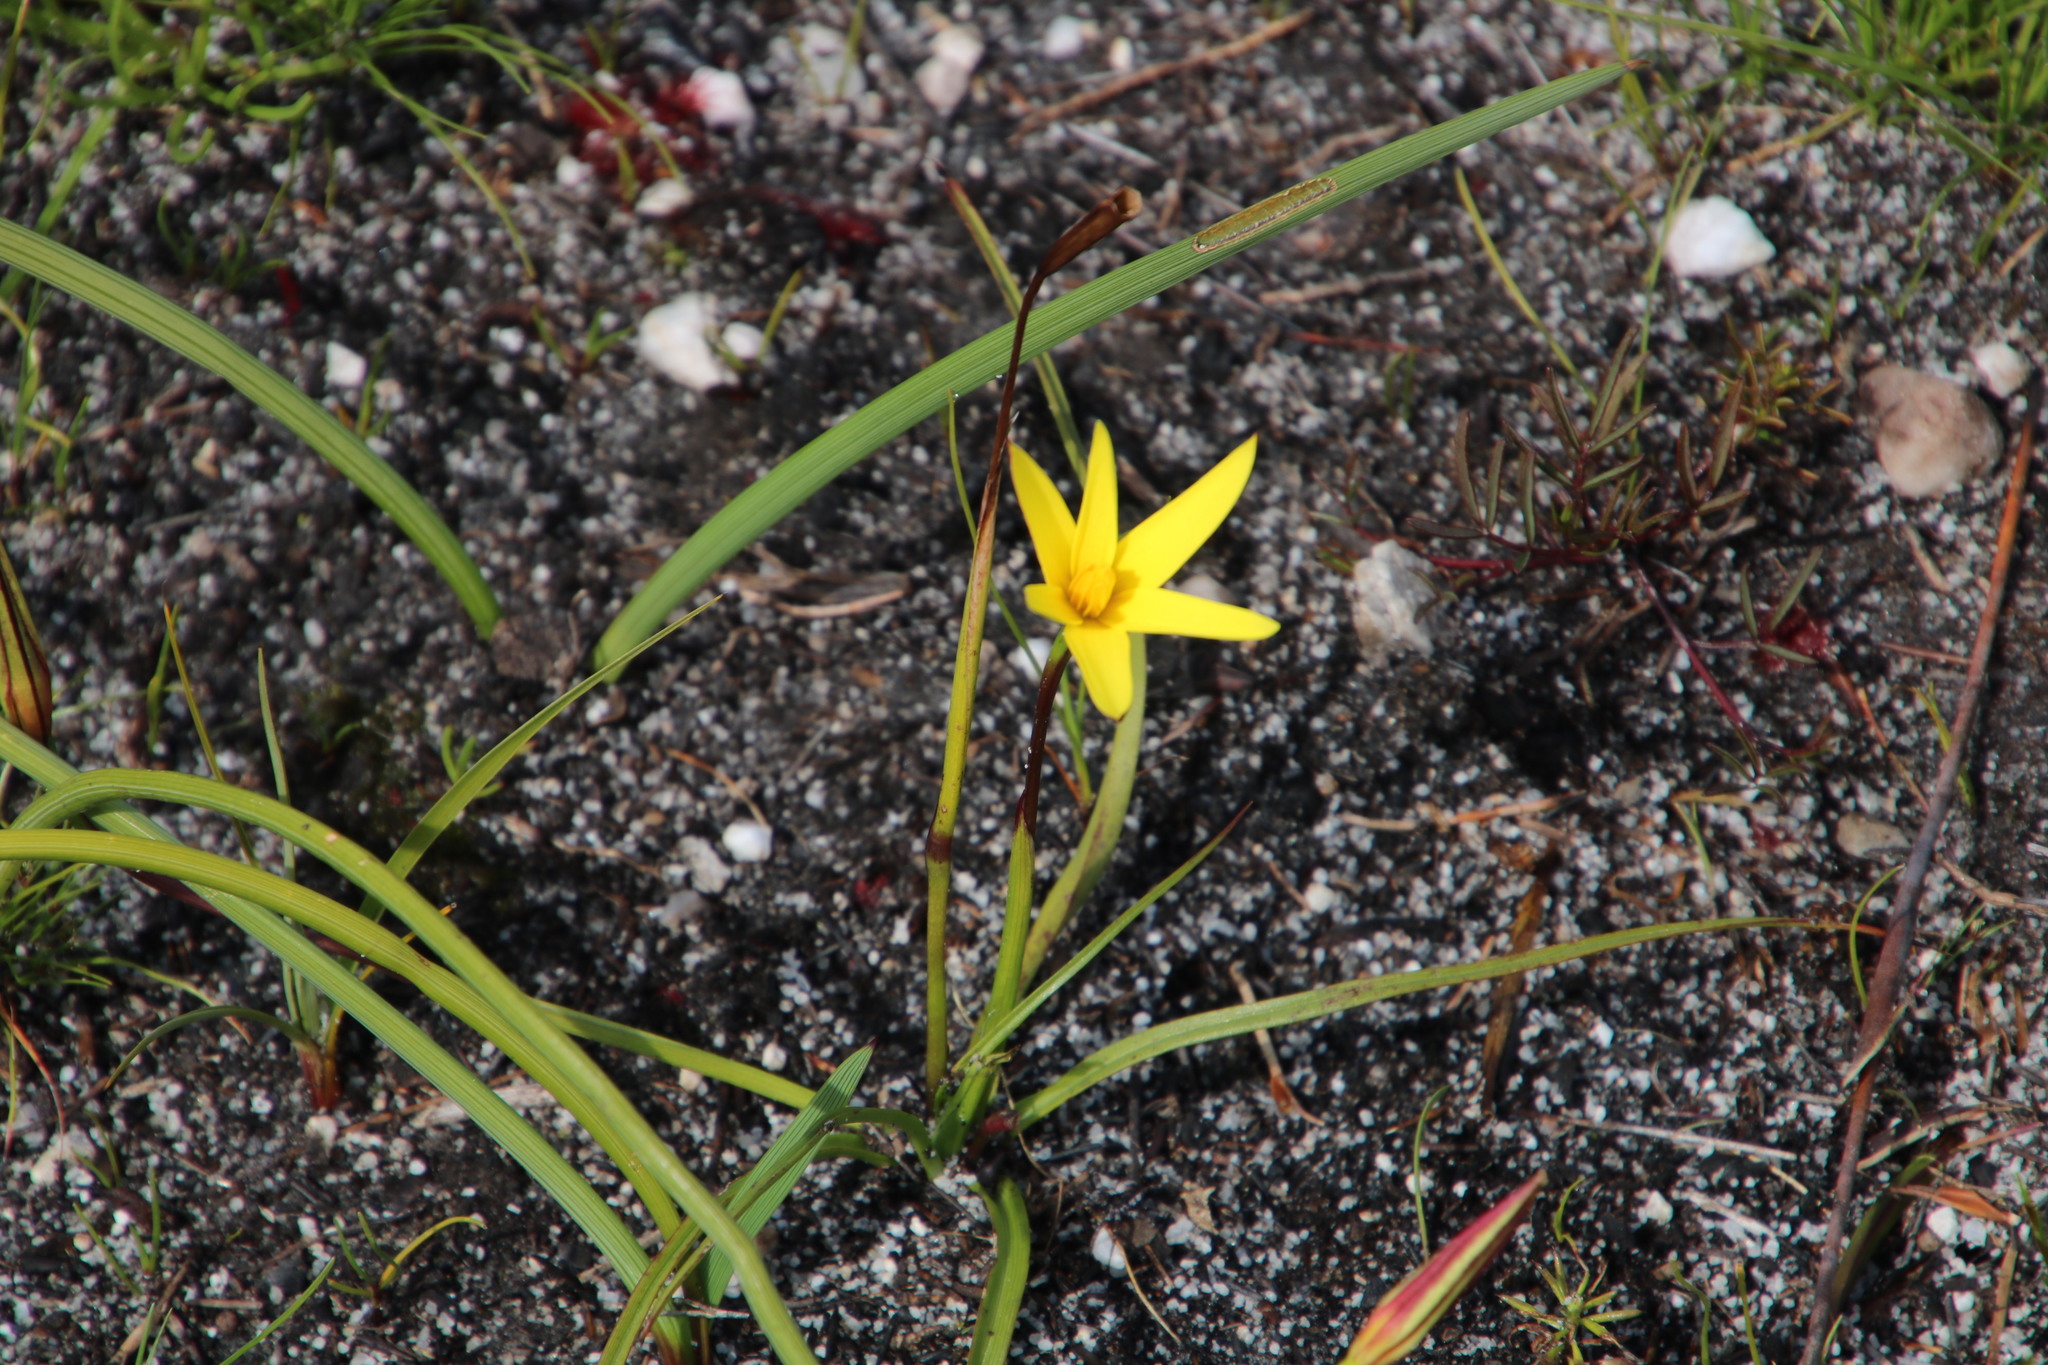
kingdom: Plantae
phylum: Tracheophyta
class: Liliopsida
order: Asparagales
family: Hypoxidaceae
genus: Pauridia
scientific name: Pauridia capensis
